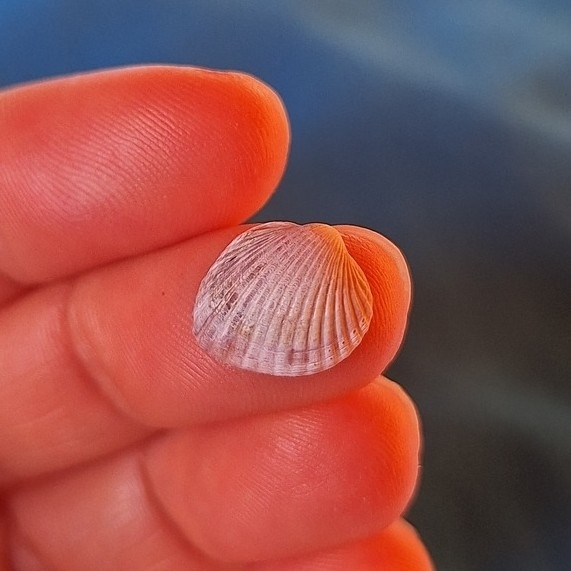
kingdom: Animalia
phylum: Mollusca
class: Bivalvia
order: Cardiida
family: Cardiidae
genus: Parvicardium
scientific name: Parvicardium exiguum
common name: Little cockle
